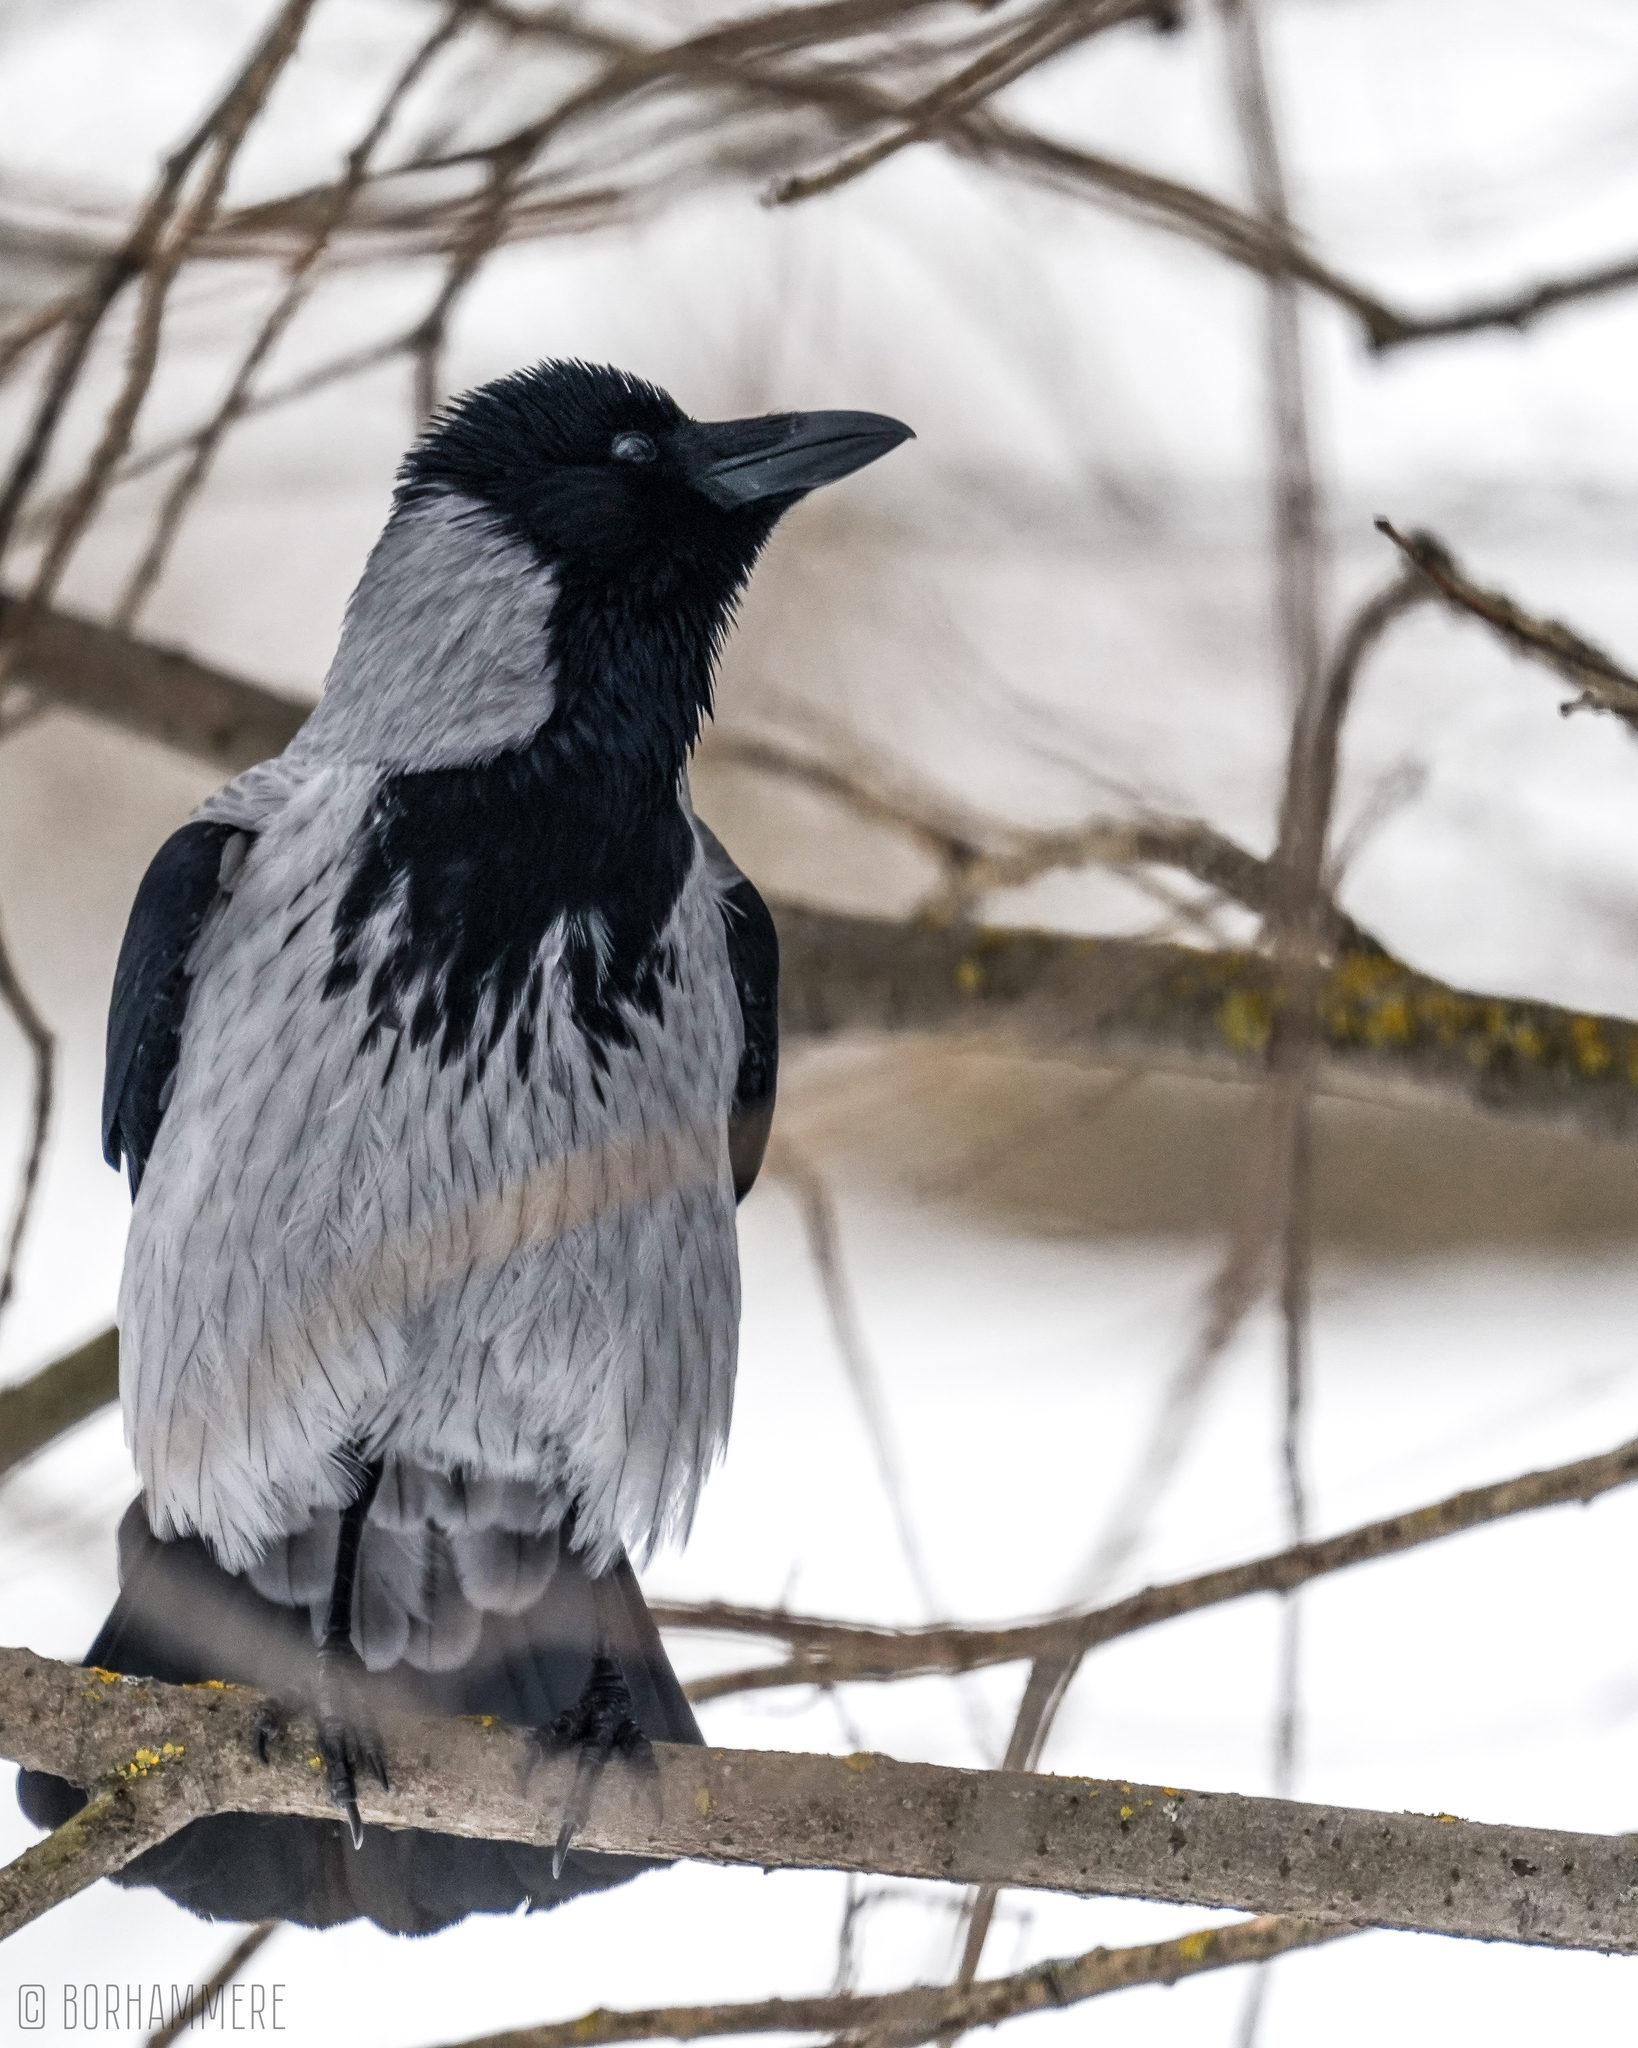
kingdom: Animalia
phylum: Chordata
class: Aves
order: Passeriformes
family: Corvidae
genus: Corvus
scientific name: Corvus cornix
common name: Hooded crow
